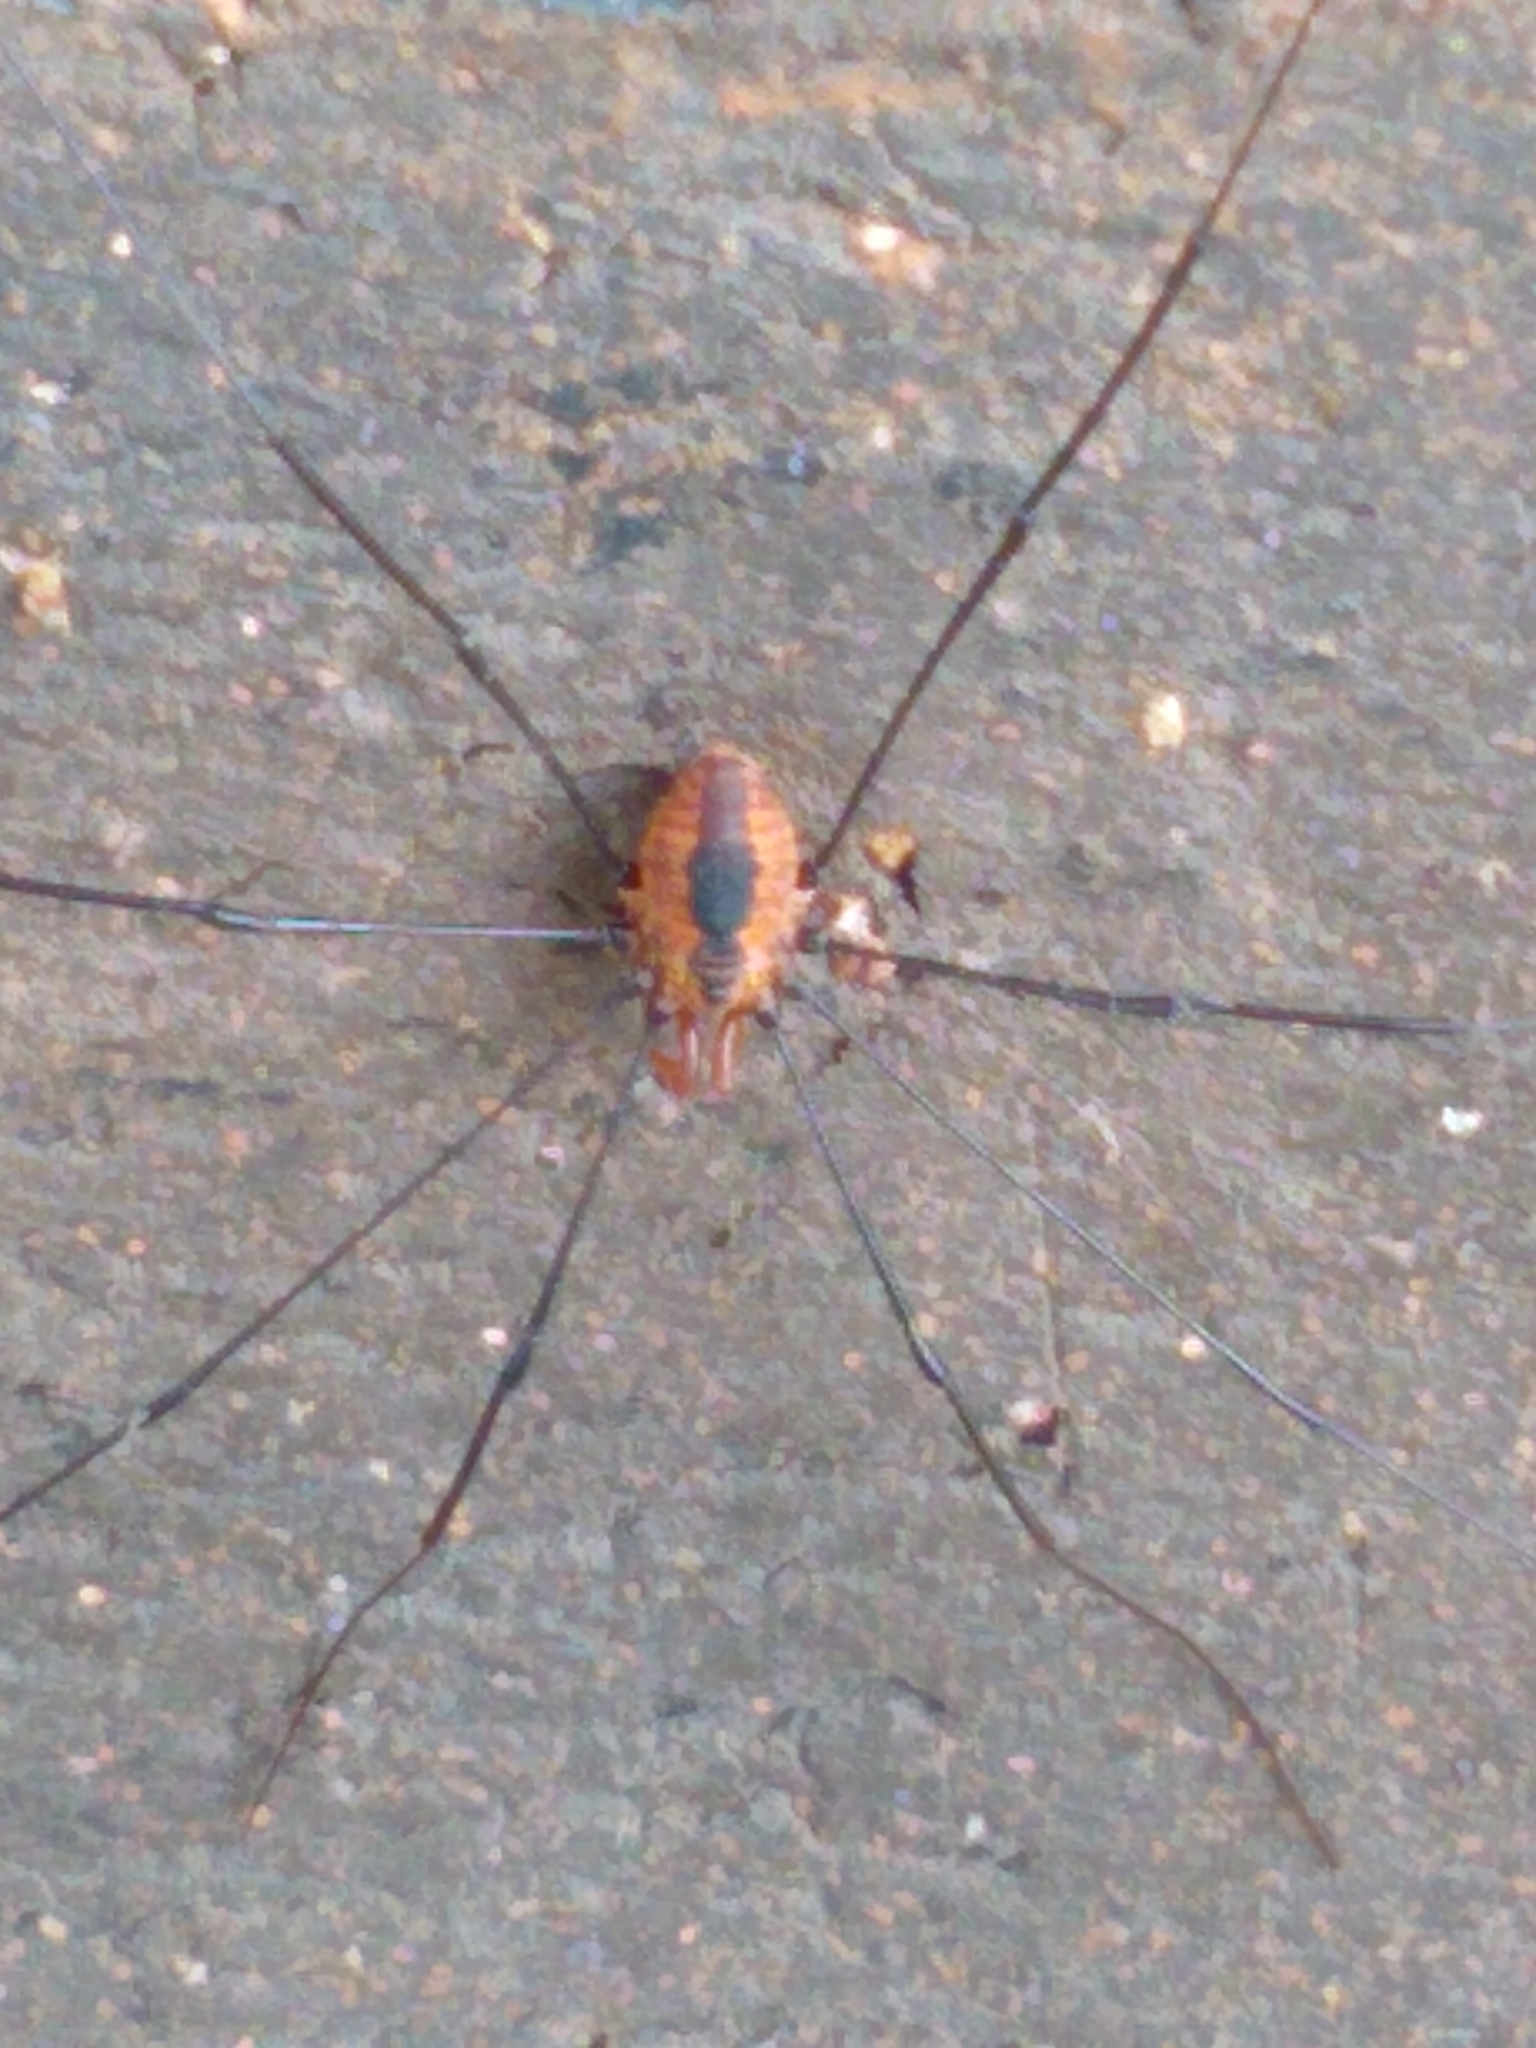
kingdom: Animalia
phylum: Arthropoda
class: Arachnida
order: Opiliones
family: Sclerosomatidae
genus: Leiobunum
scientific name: Leiobunum vittatum
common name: Eastern harvestman
